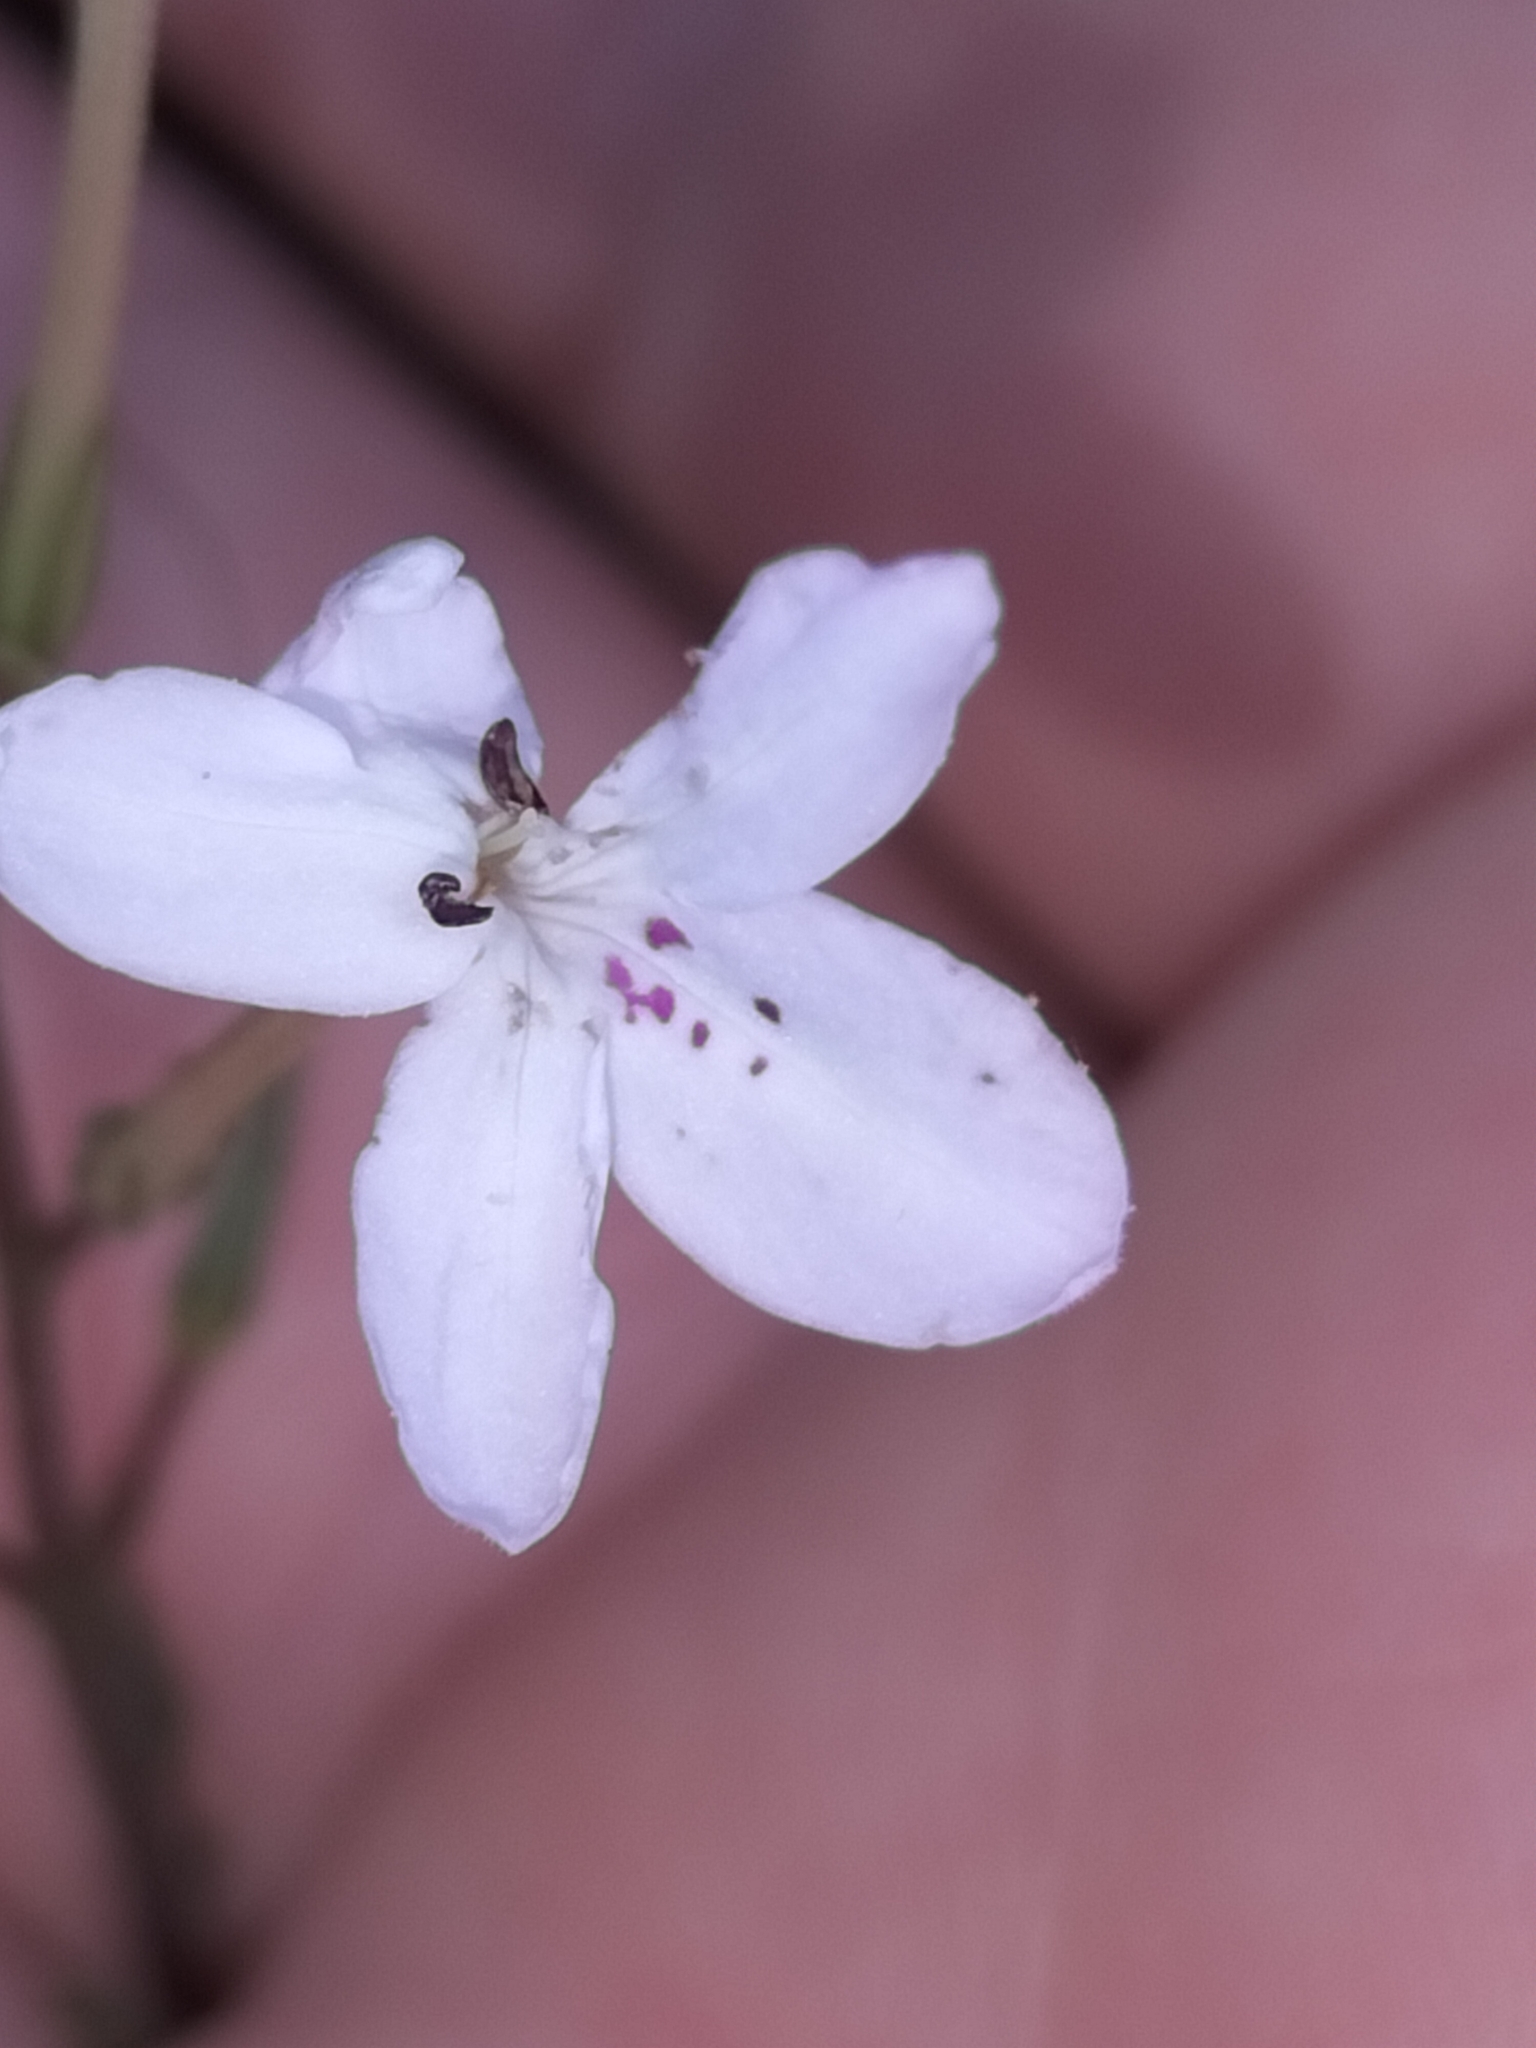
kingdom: Plantae
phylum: Tracheophyta
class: Magnoliopsida
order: Lamiales
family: Acanthaceae
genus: Pseuderanthemum
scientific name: Pseuderanthemum variabile
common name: Night and afternoon
